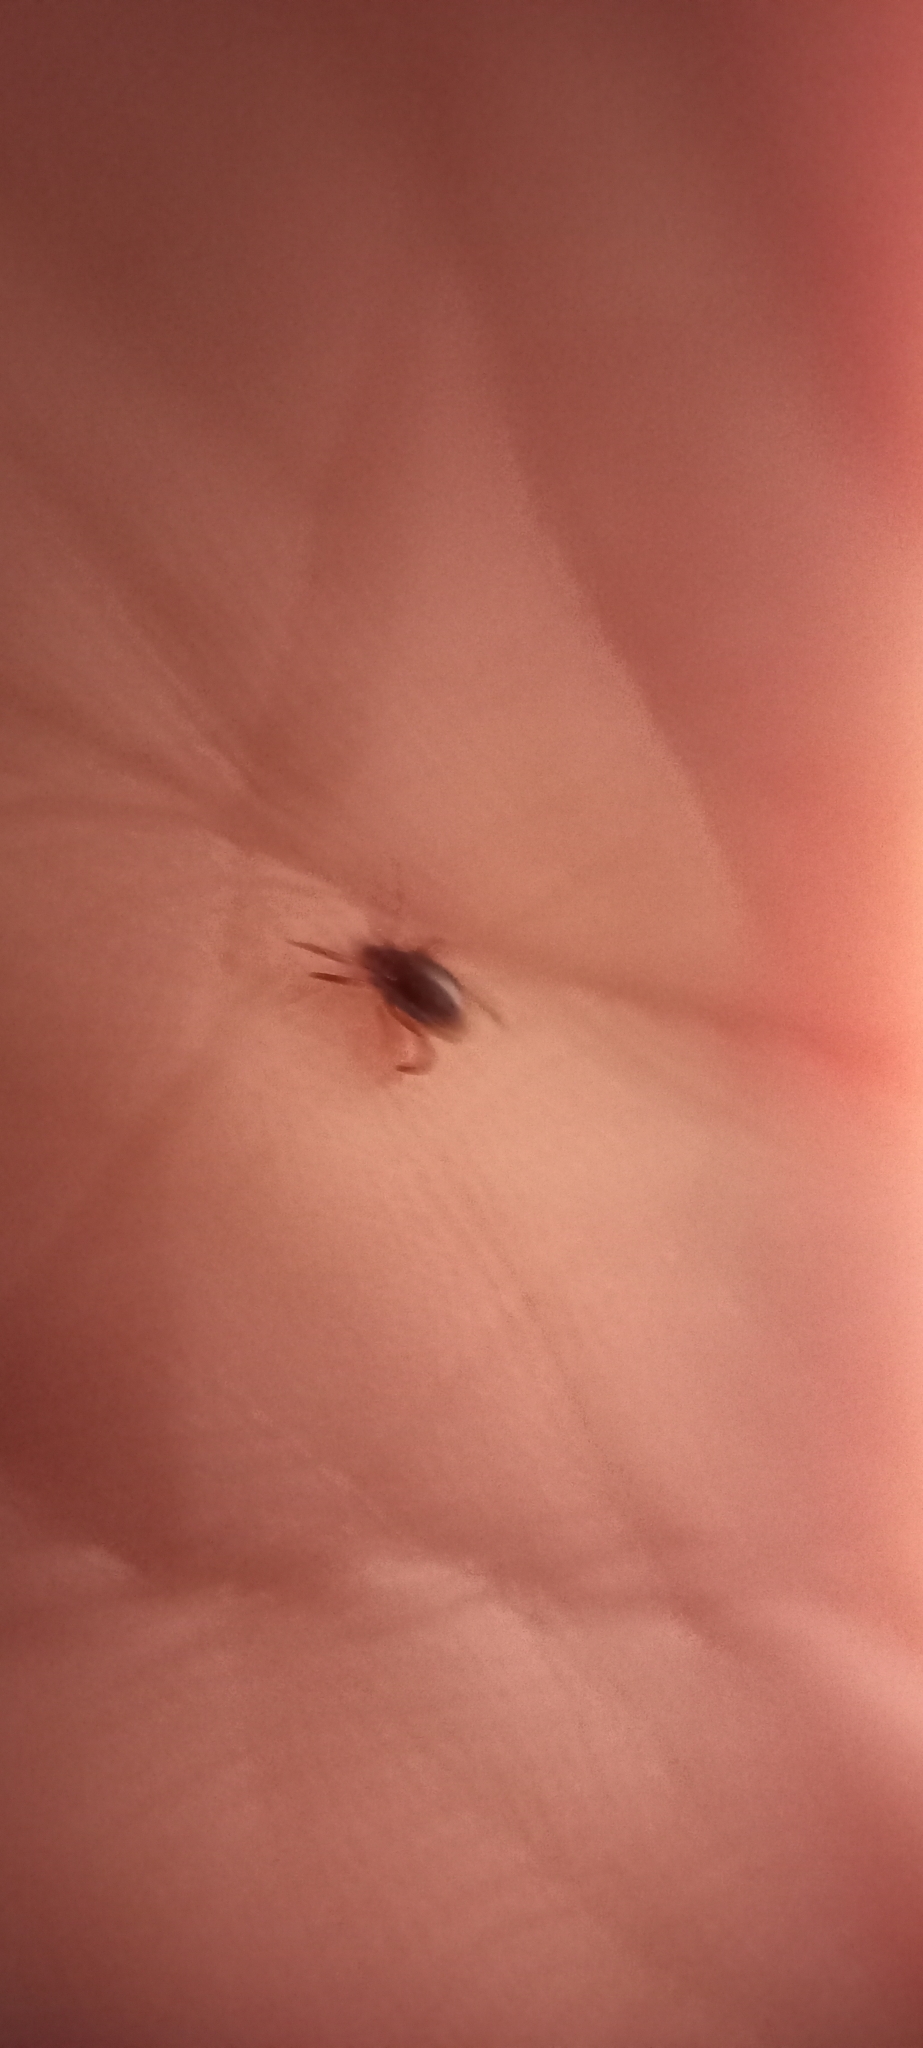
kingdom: Animalia
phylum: Arthropoda
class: Arachnida
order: Ixodida
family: Ixodidae
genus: Rhipicephalus
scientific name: Rhipicephalus sanguineus
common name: Brown dog tick
